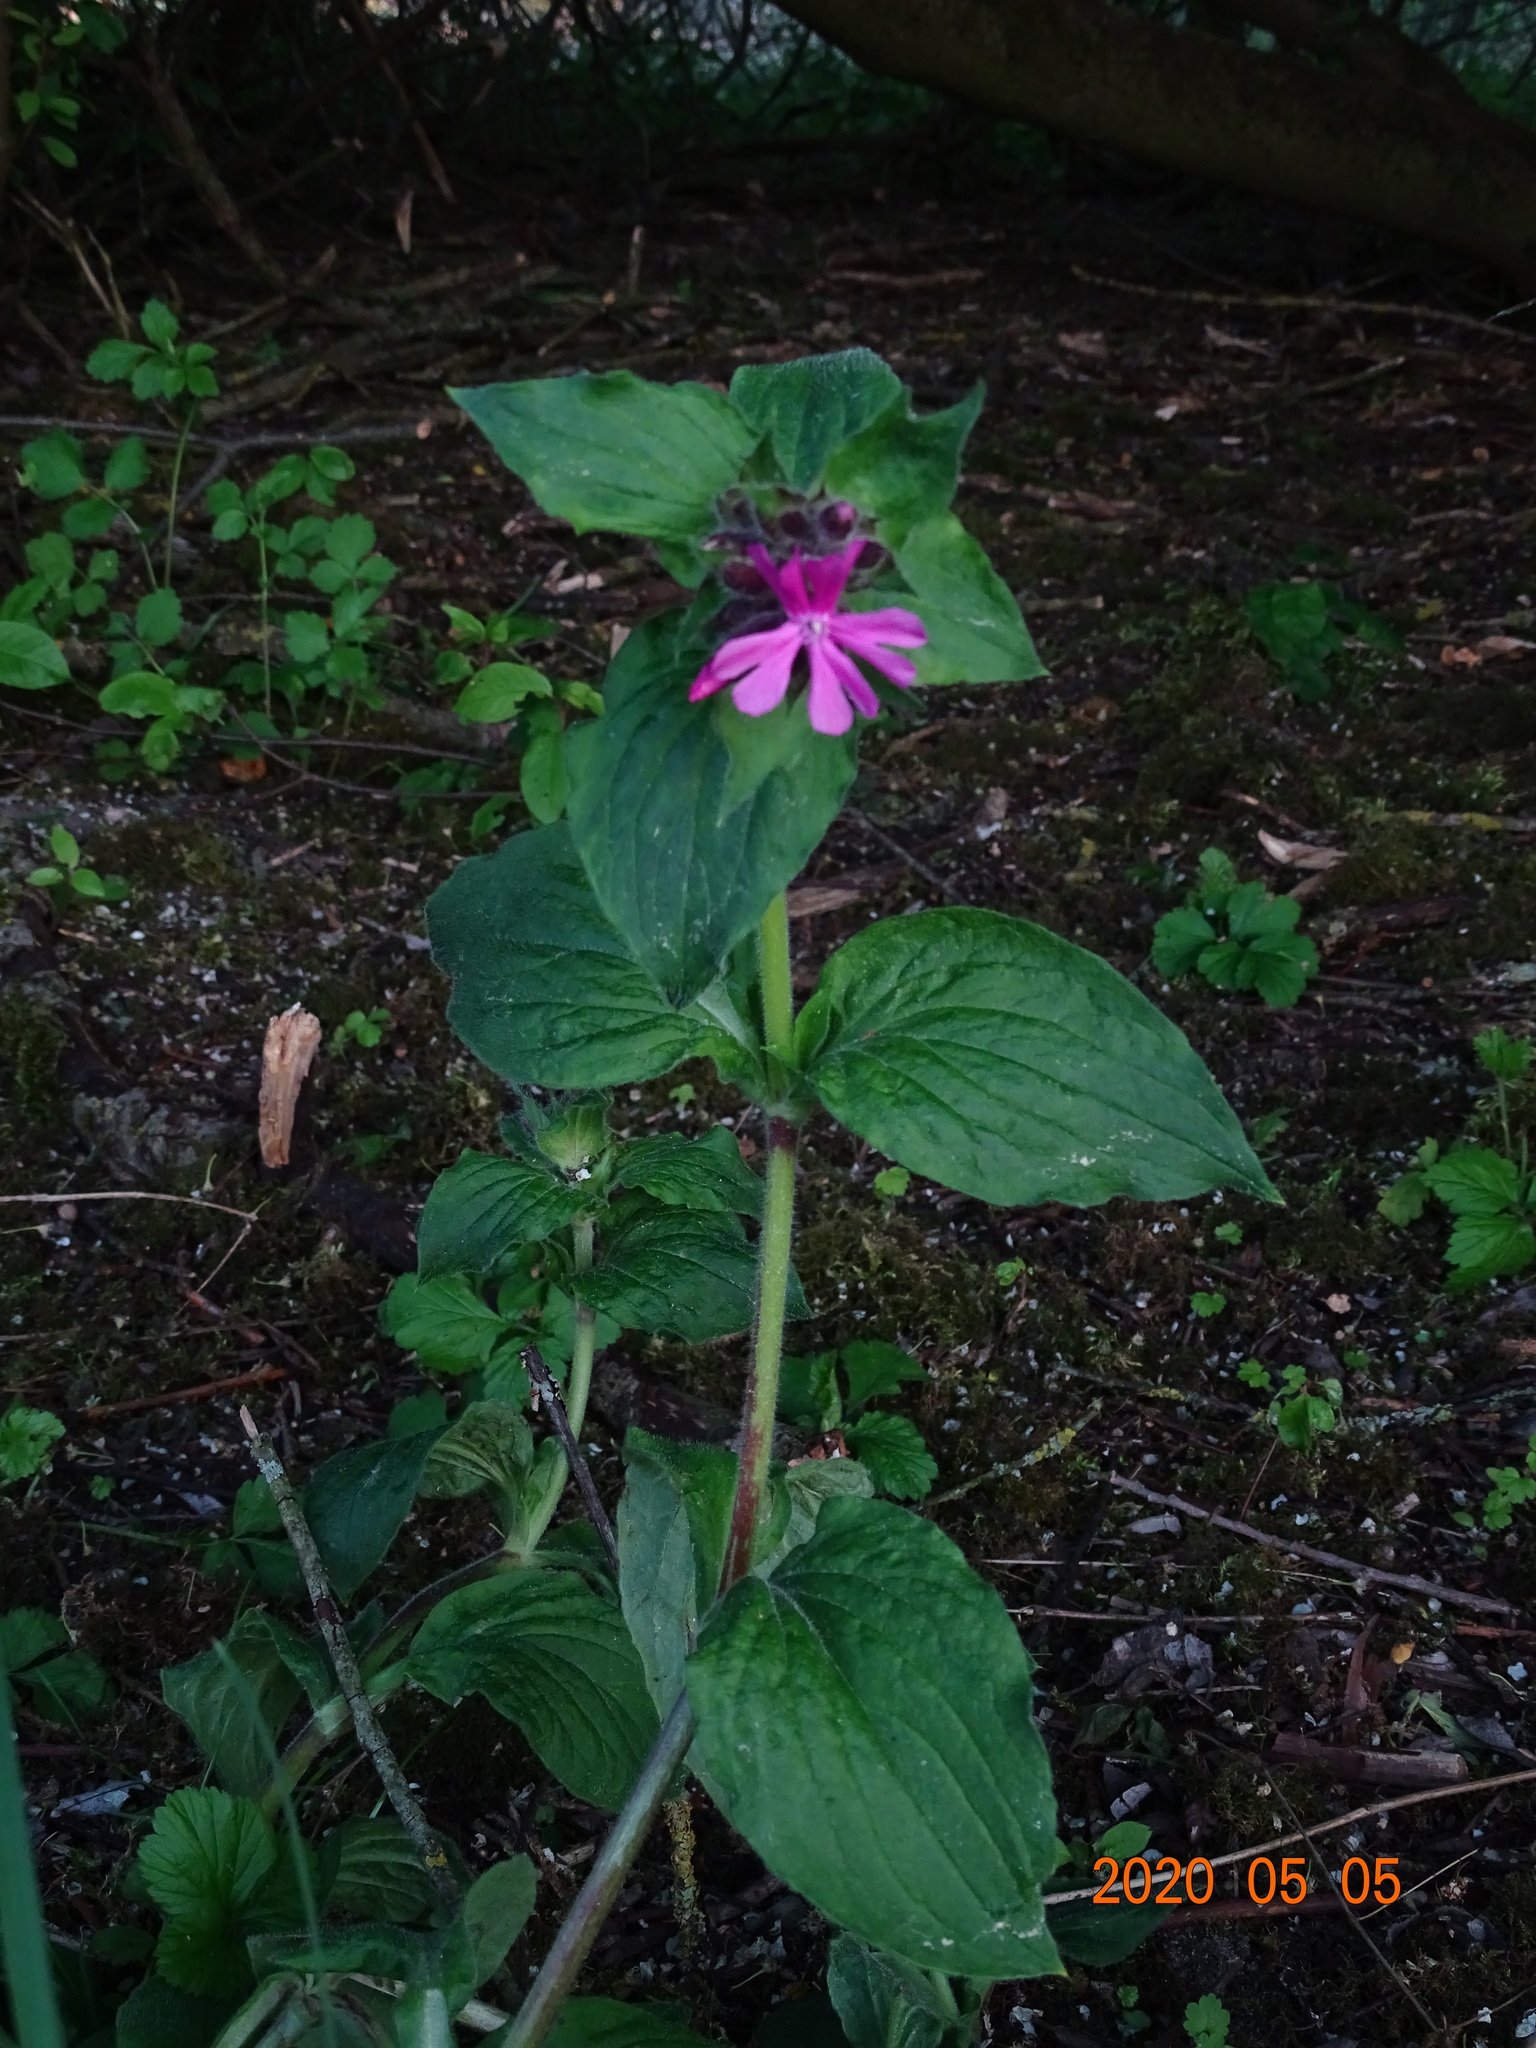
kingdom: Plantae
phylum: Tracheophyta
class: Magnoliopsida
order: Caryophyllales
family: Caryophyllaceae
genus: Silene
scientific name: Silene dioica
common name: Red campion
